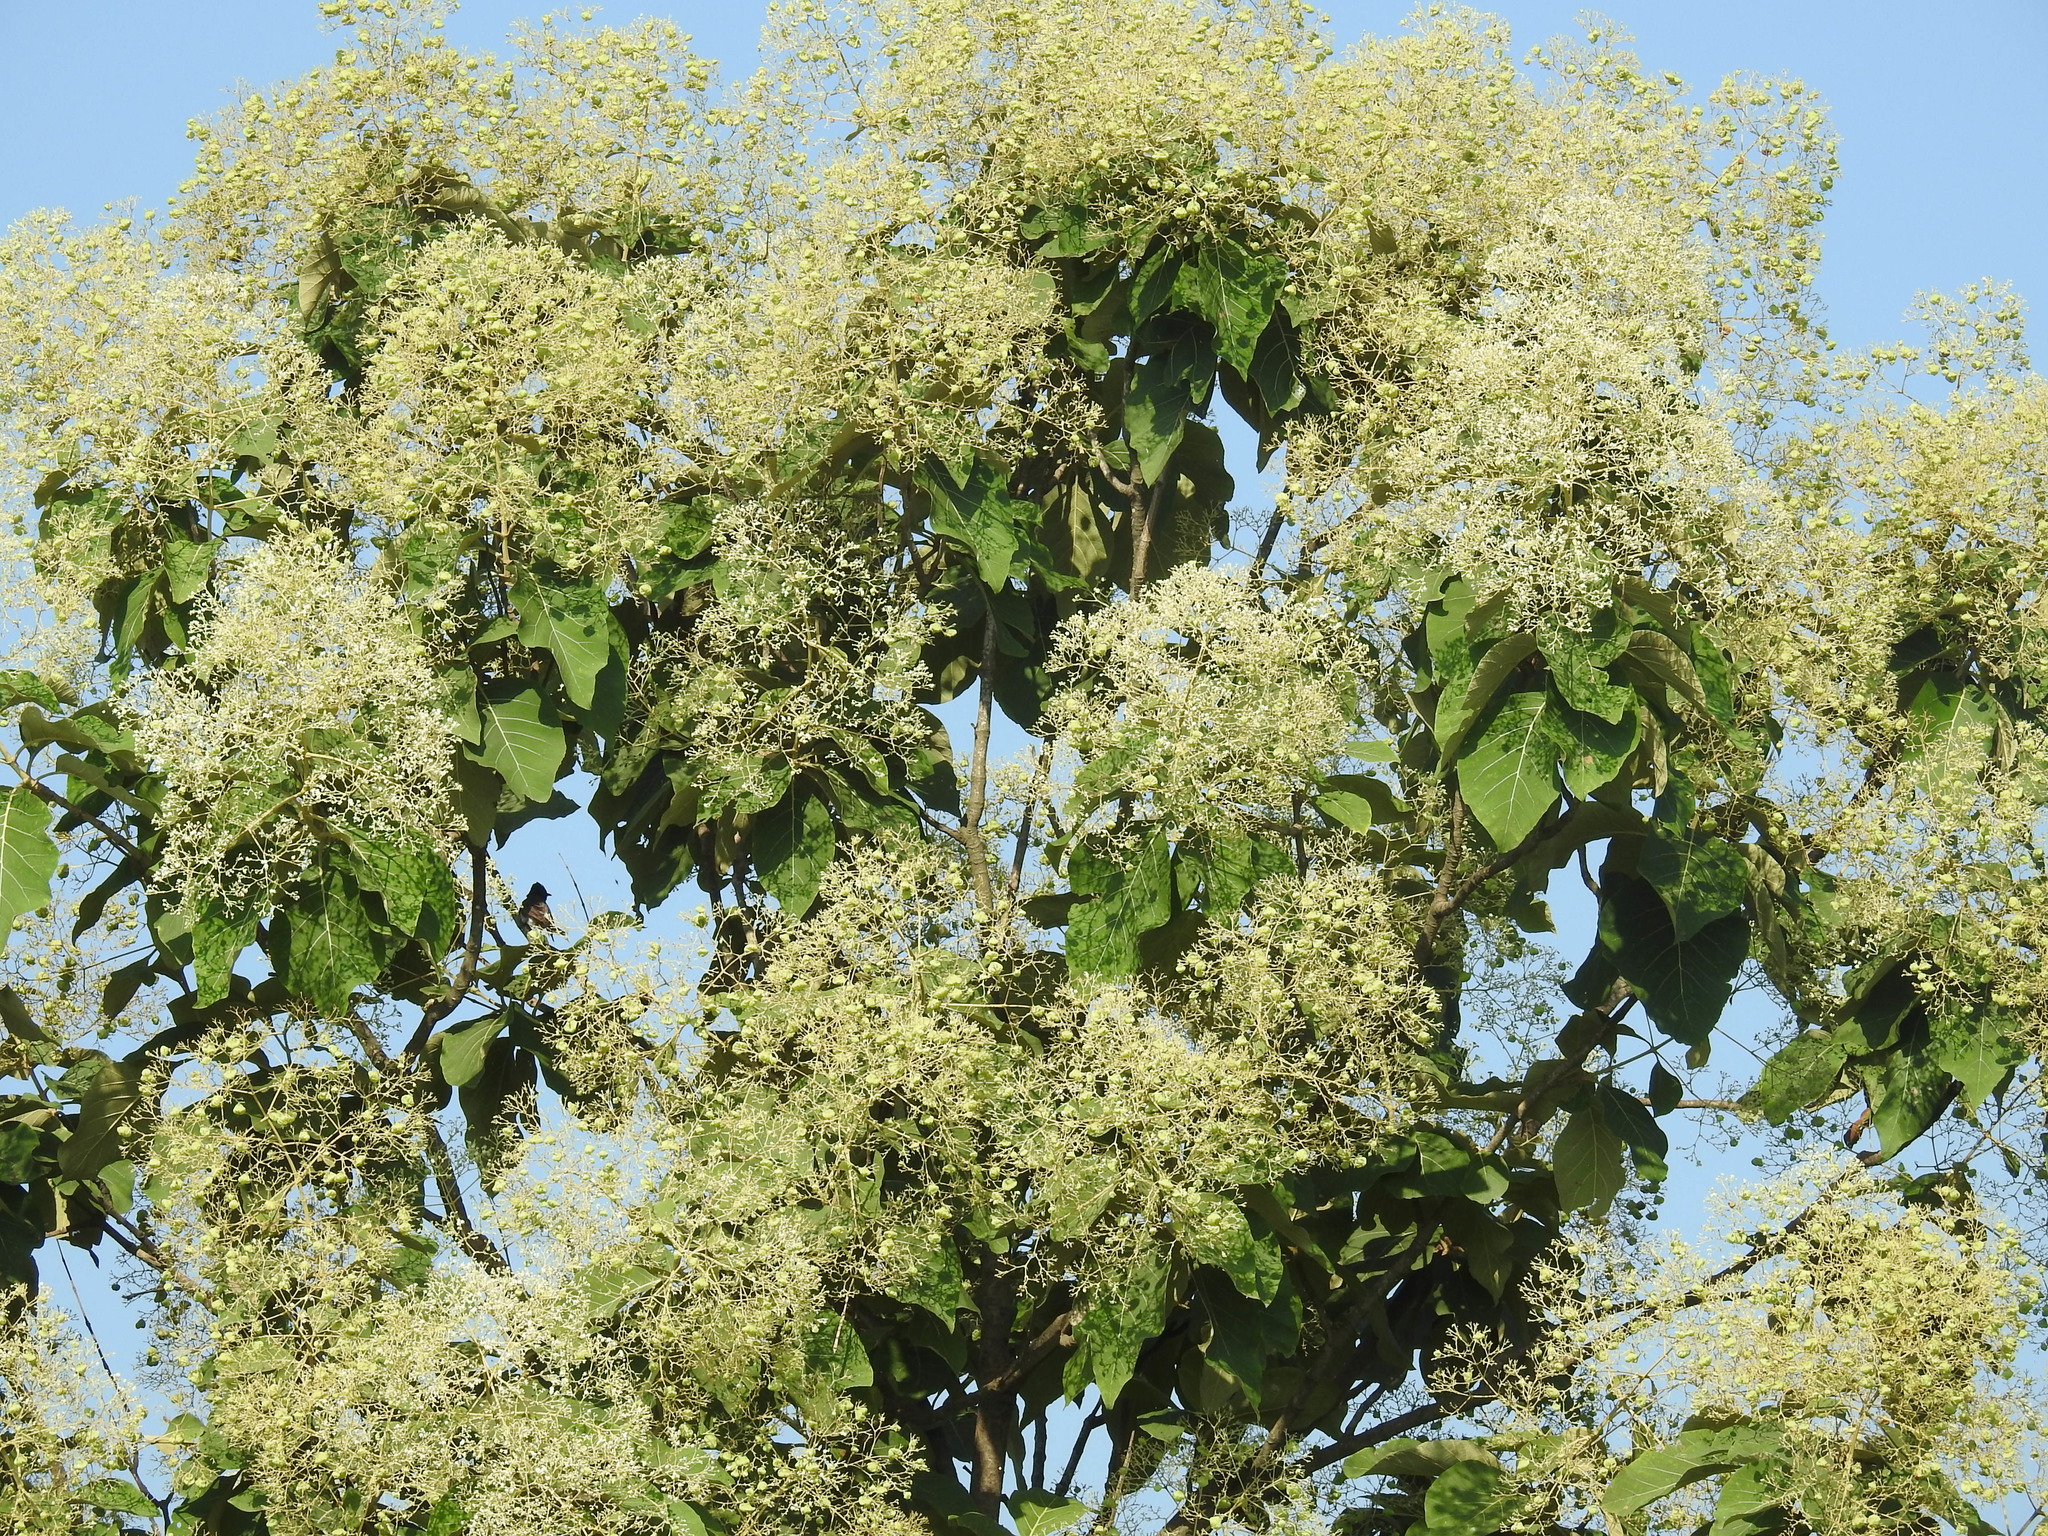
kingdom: Plantae
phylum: Tracheophyta
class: Magnoliopsida
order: Lamiales
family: Lamiaceae
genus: Tectona
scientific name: Tectona grandis
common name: Teak
